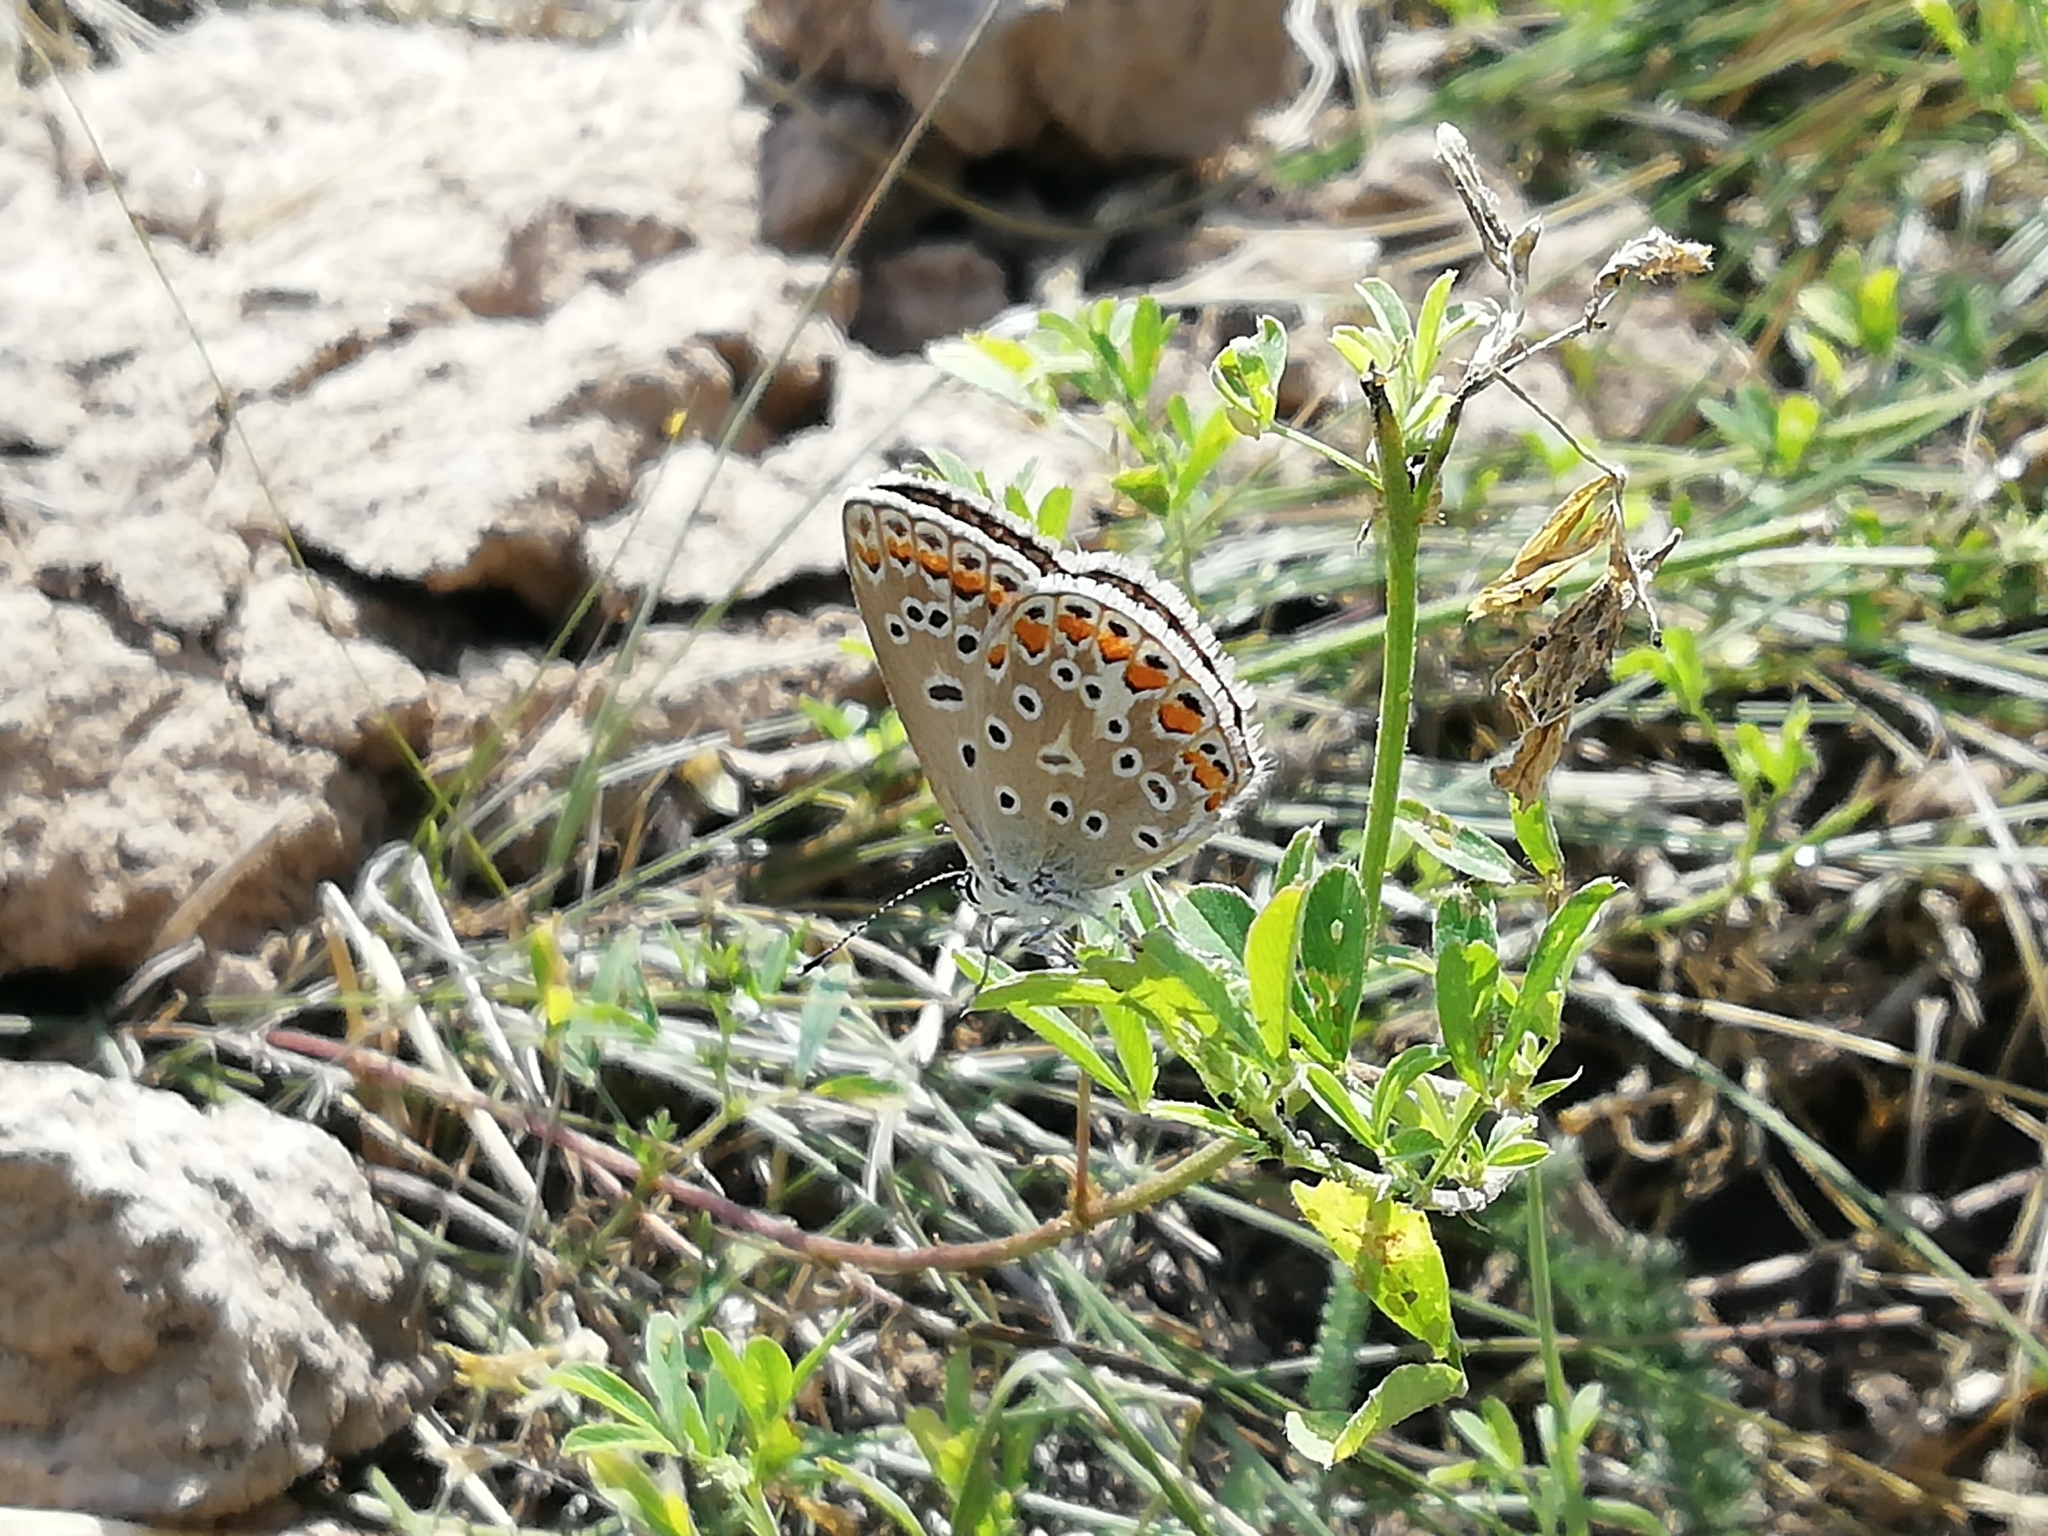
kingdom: Animalia
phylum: Arthropoda
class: Insecta
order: Lepidoptera
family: Lycaenidae
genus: Polyommatus
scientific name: Polyommatus icarus
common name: Common blue
